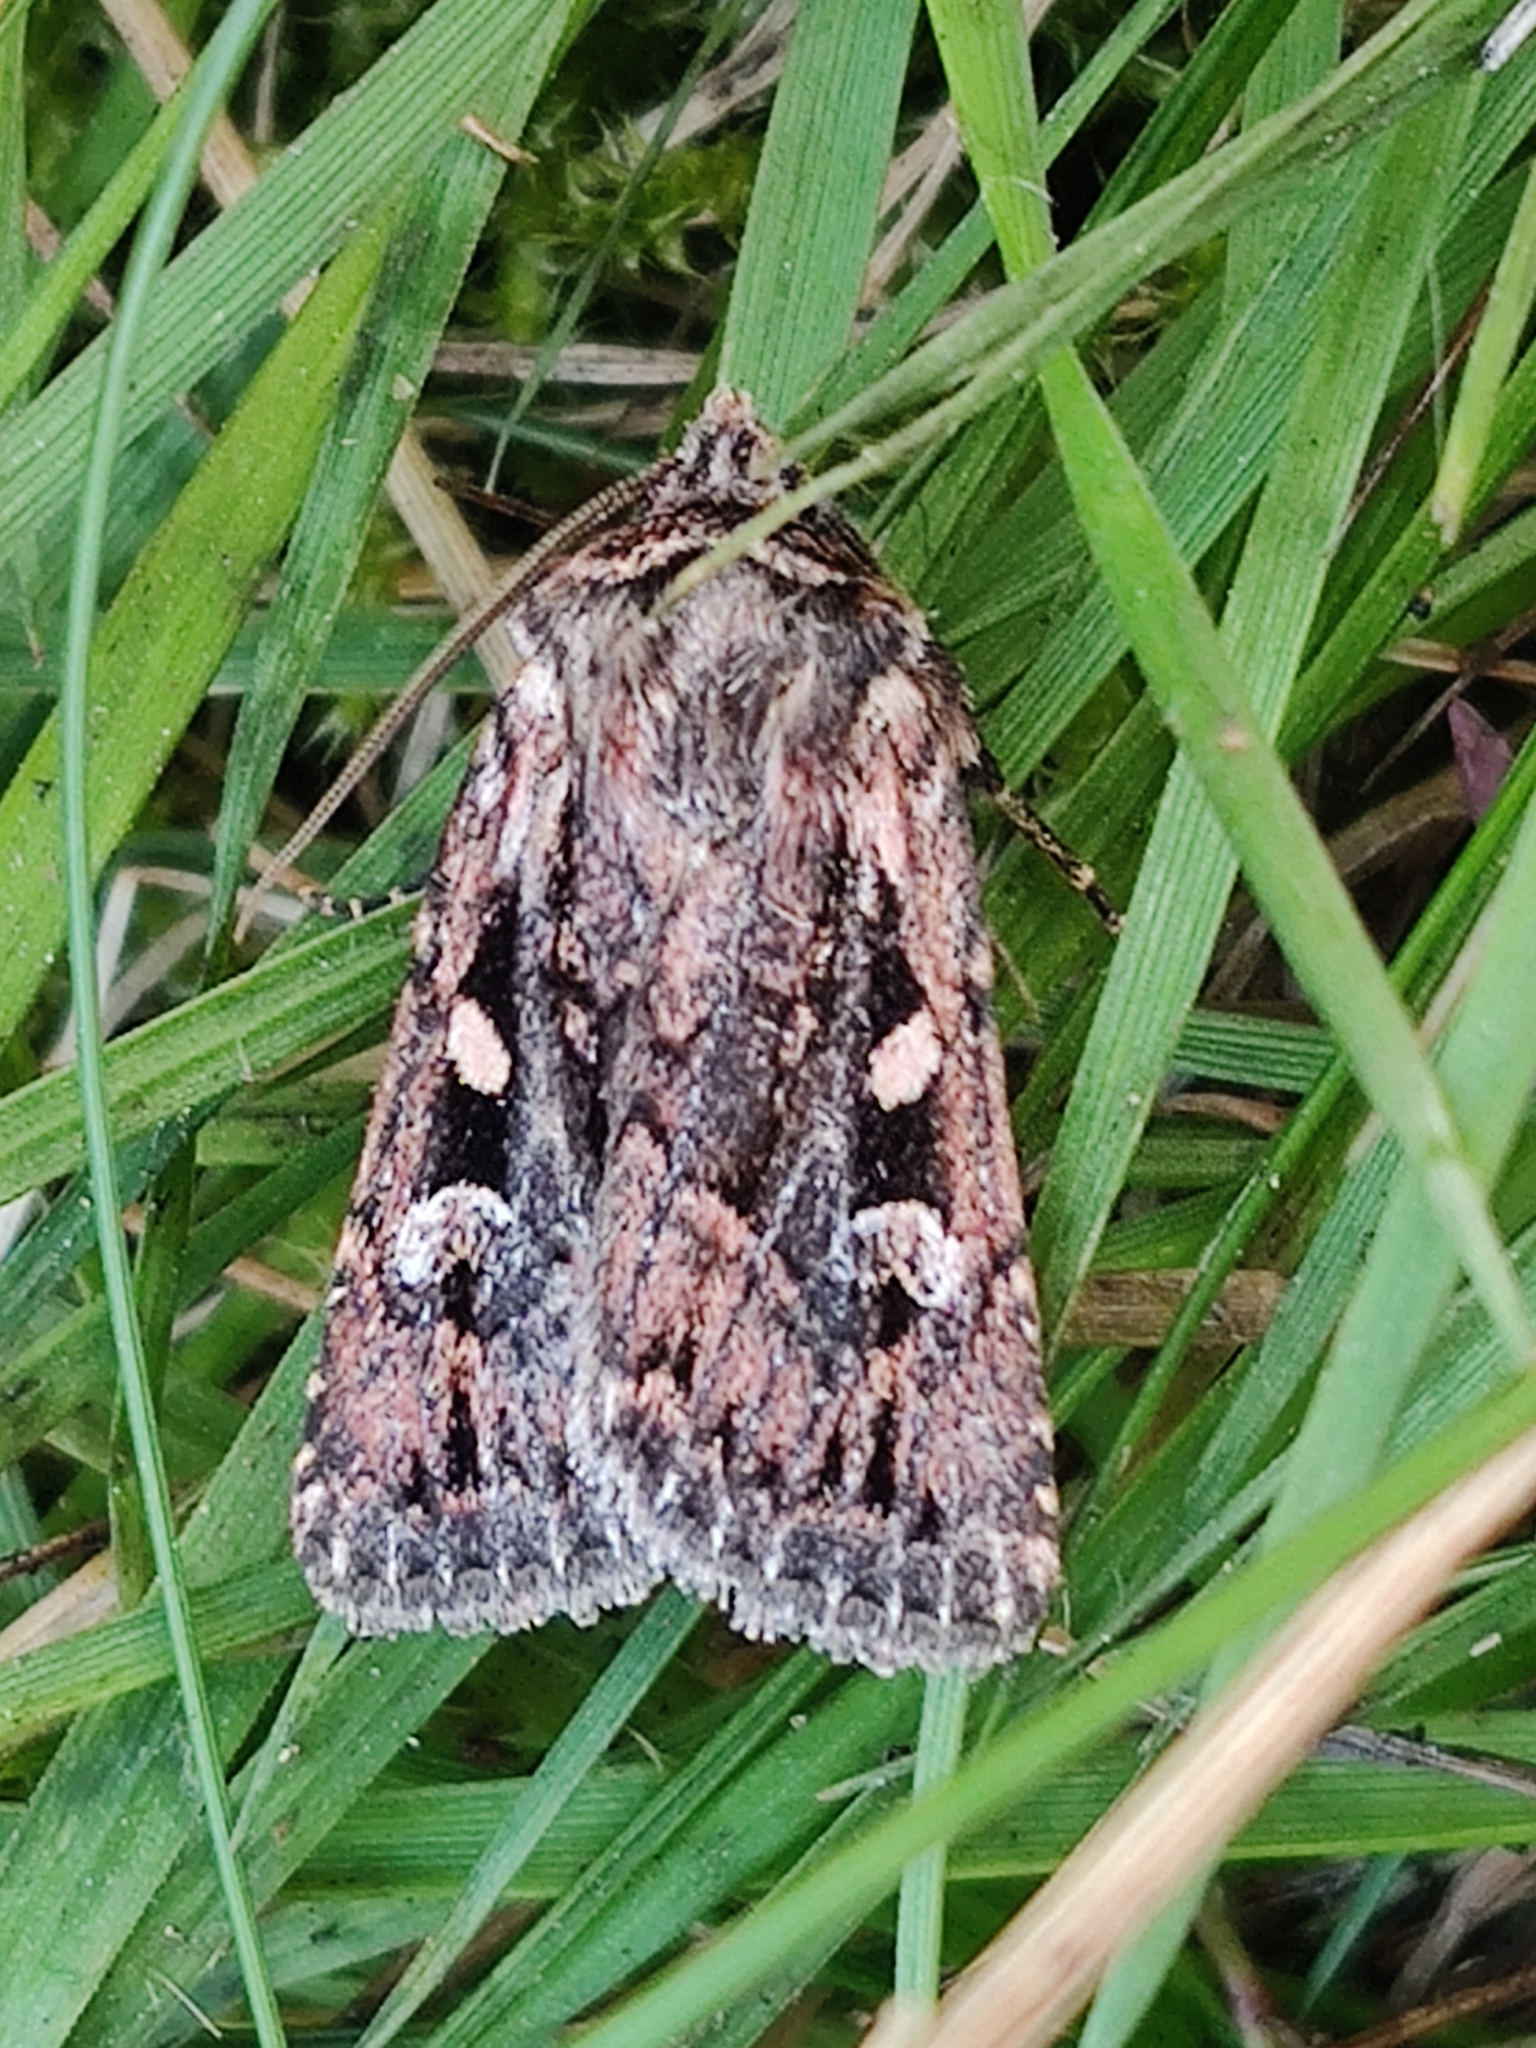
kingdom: Animalia
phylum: Arthropoda
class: Insecta
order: Lepidoptera
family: Noctuidae
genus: Xestia
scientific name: Xestia agathina
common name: Heath rustic
